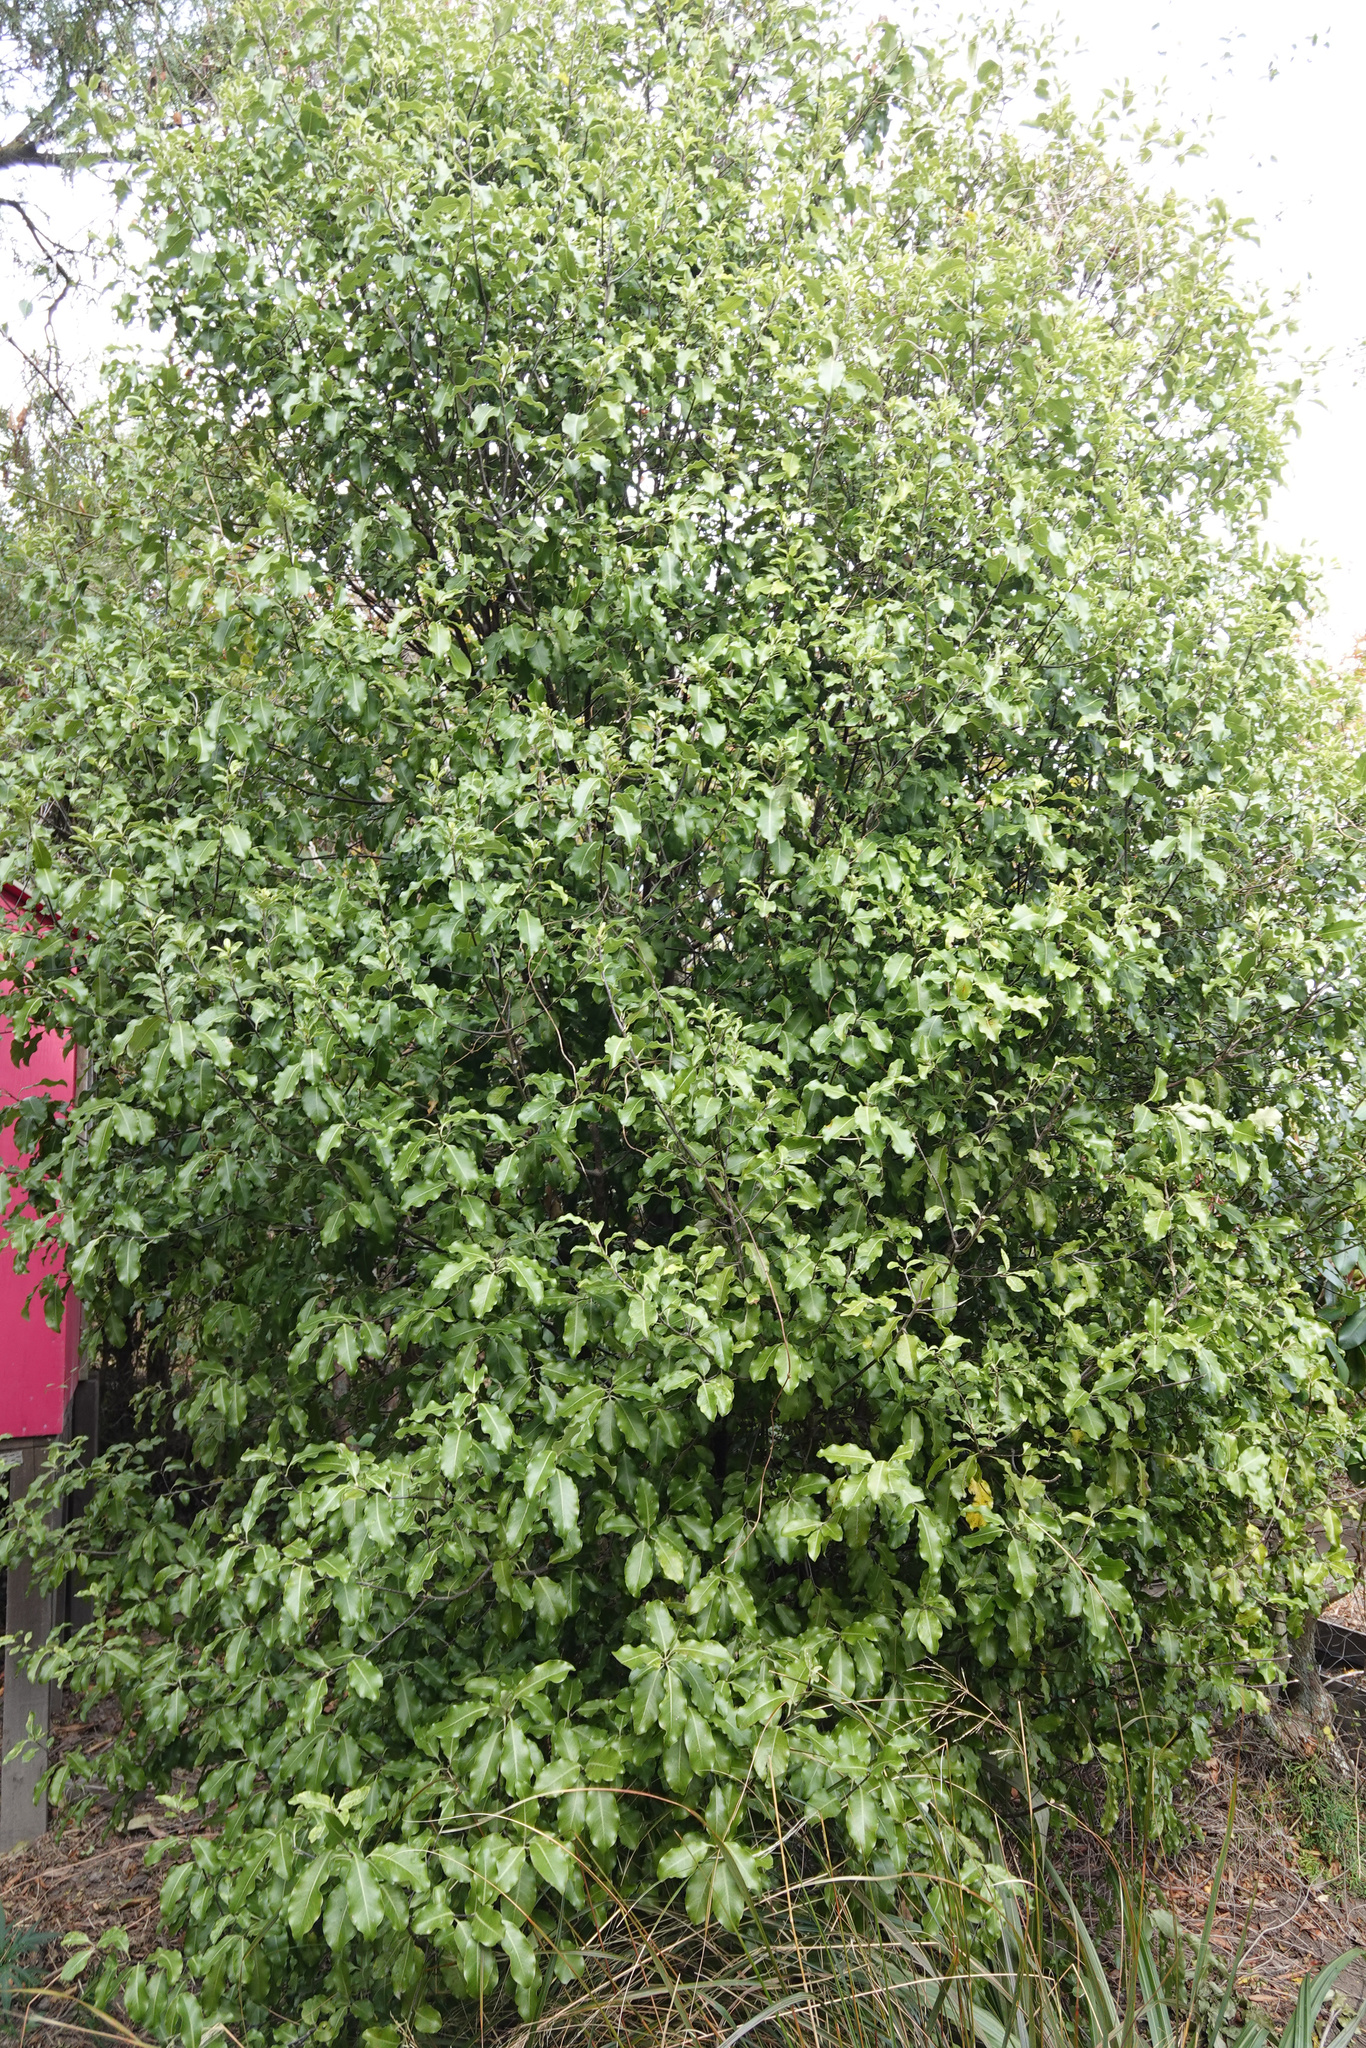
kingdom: Plantae
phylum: Tracheophyta
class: Magnoliopsida
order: Apiales
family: Pittosporaceae
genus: Pittosporum
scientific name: Pittosporum tenuifolium
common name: Kohuhu
